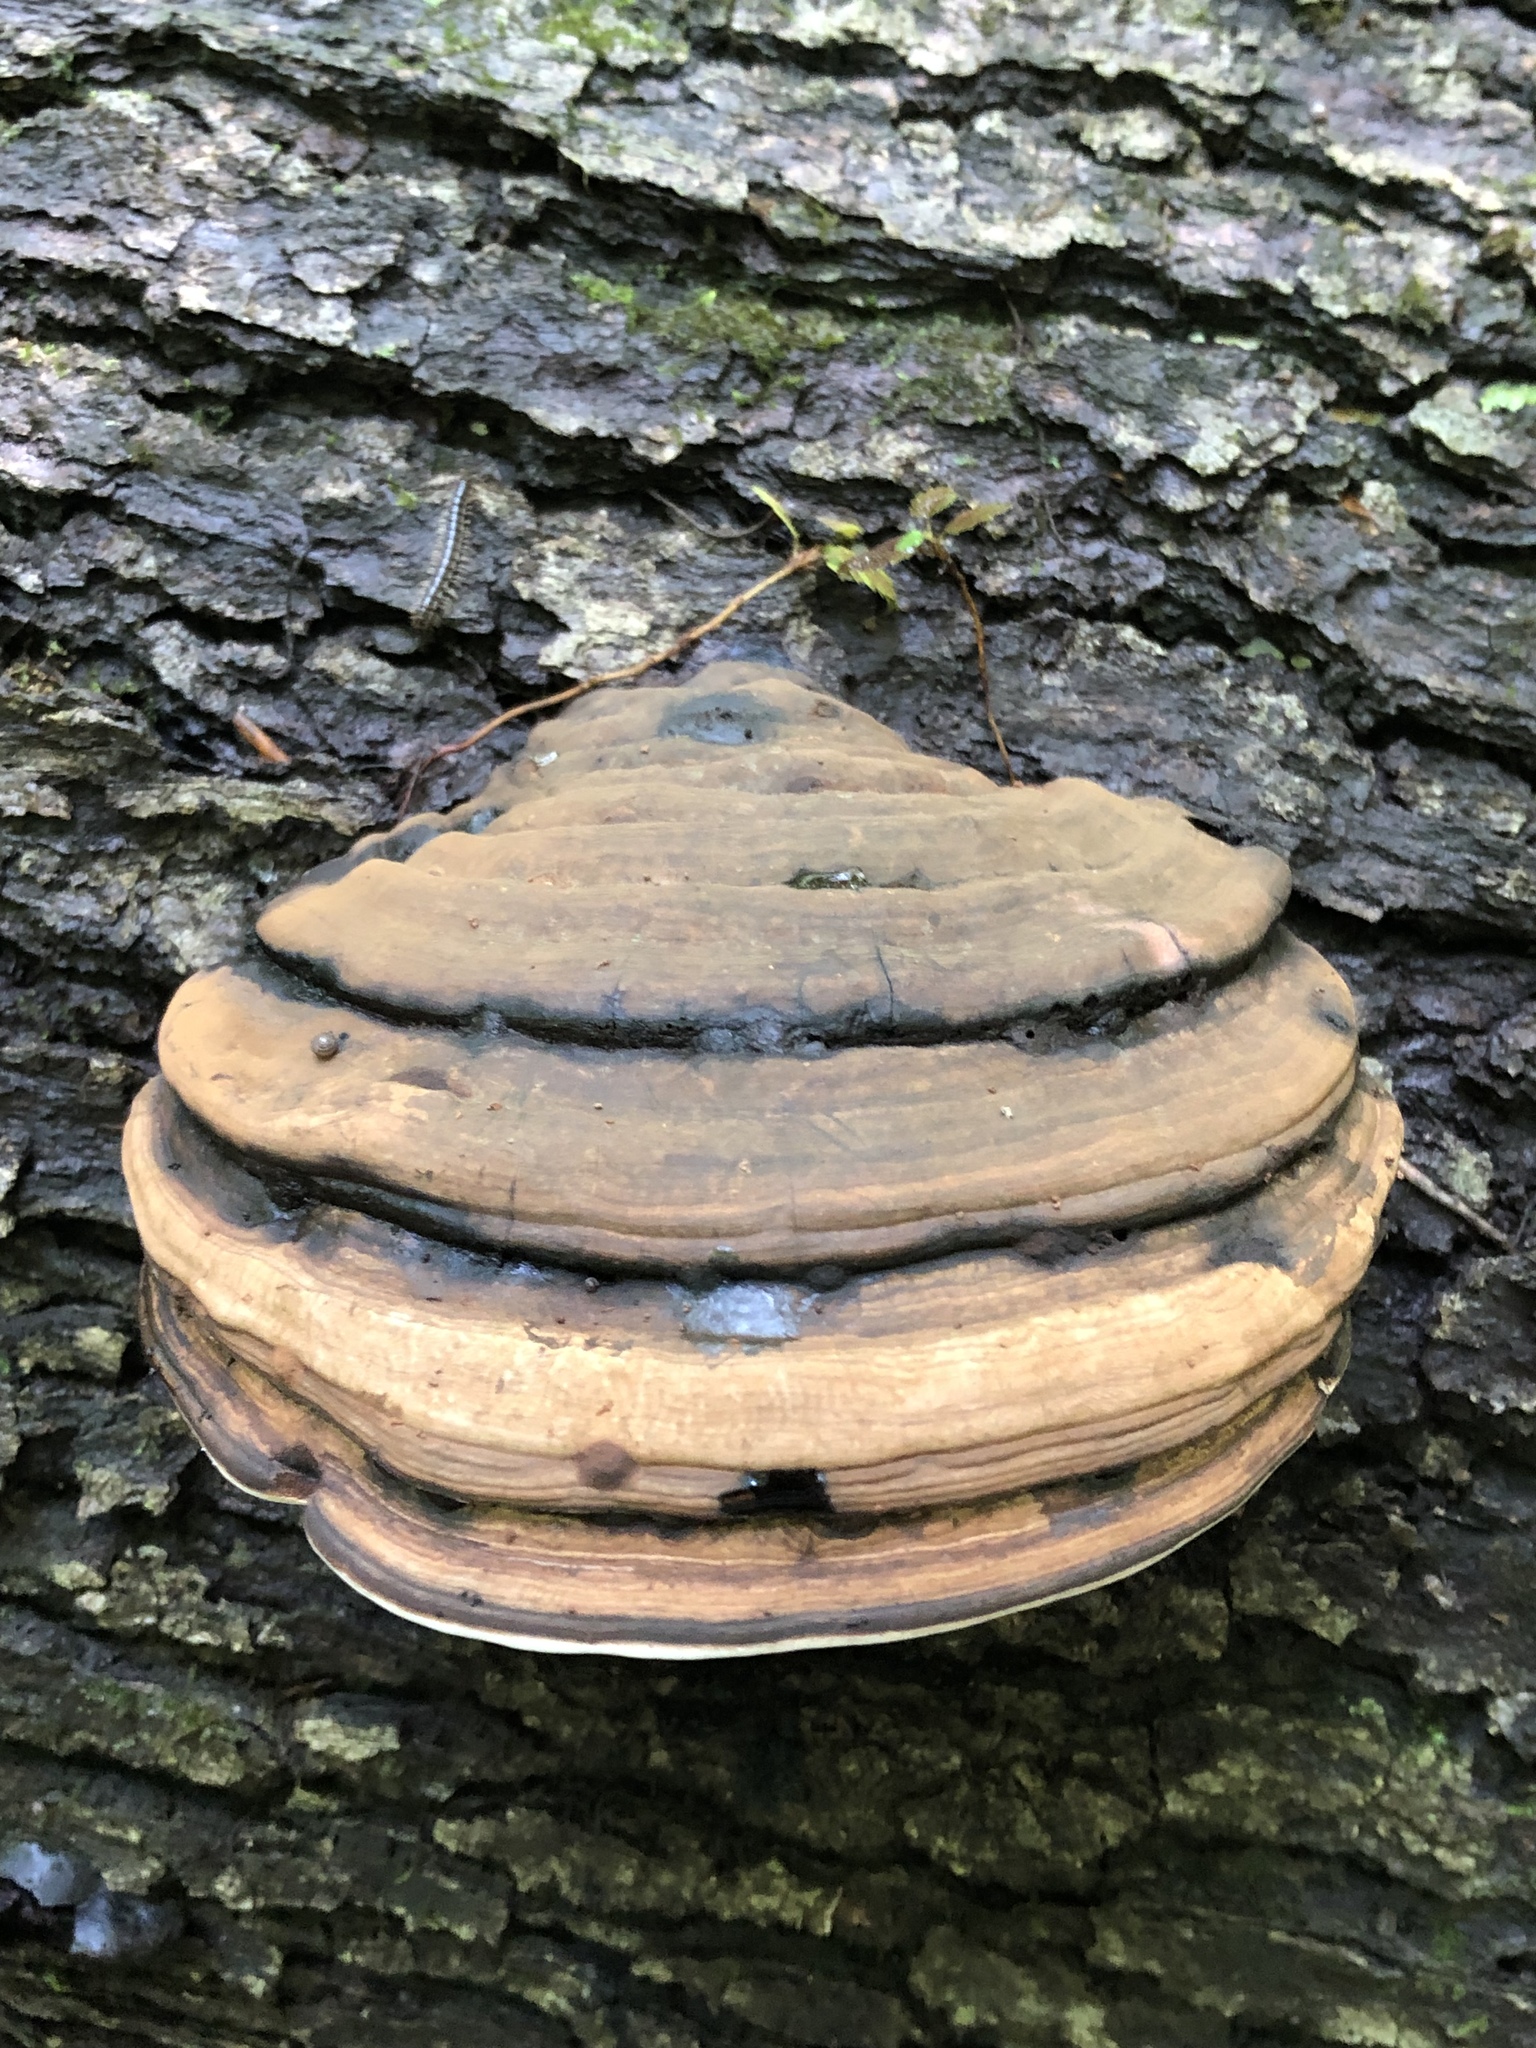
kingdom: Fungi
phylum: Basidiomycota
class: Agaricomycetes
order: Polyporales
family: Polyporaceae
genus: Fomes
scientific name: Fomes fomentarius
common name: Hoof fungus
